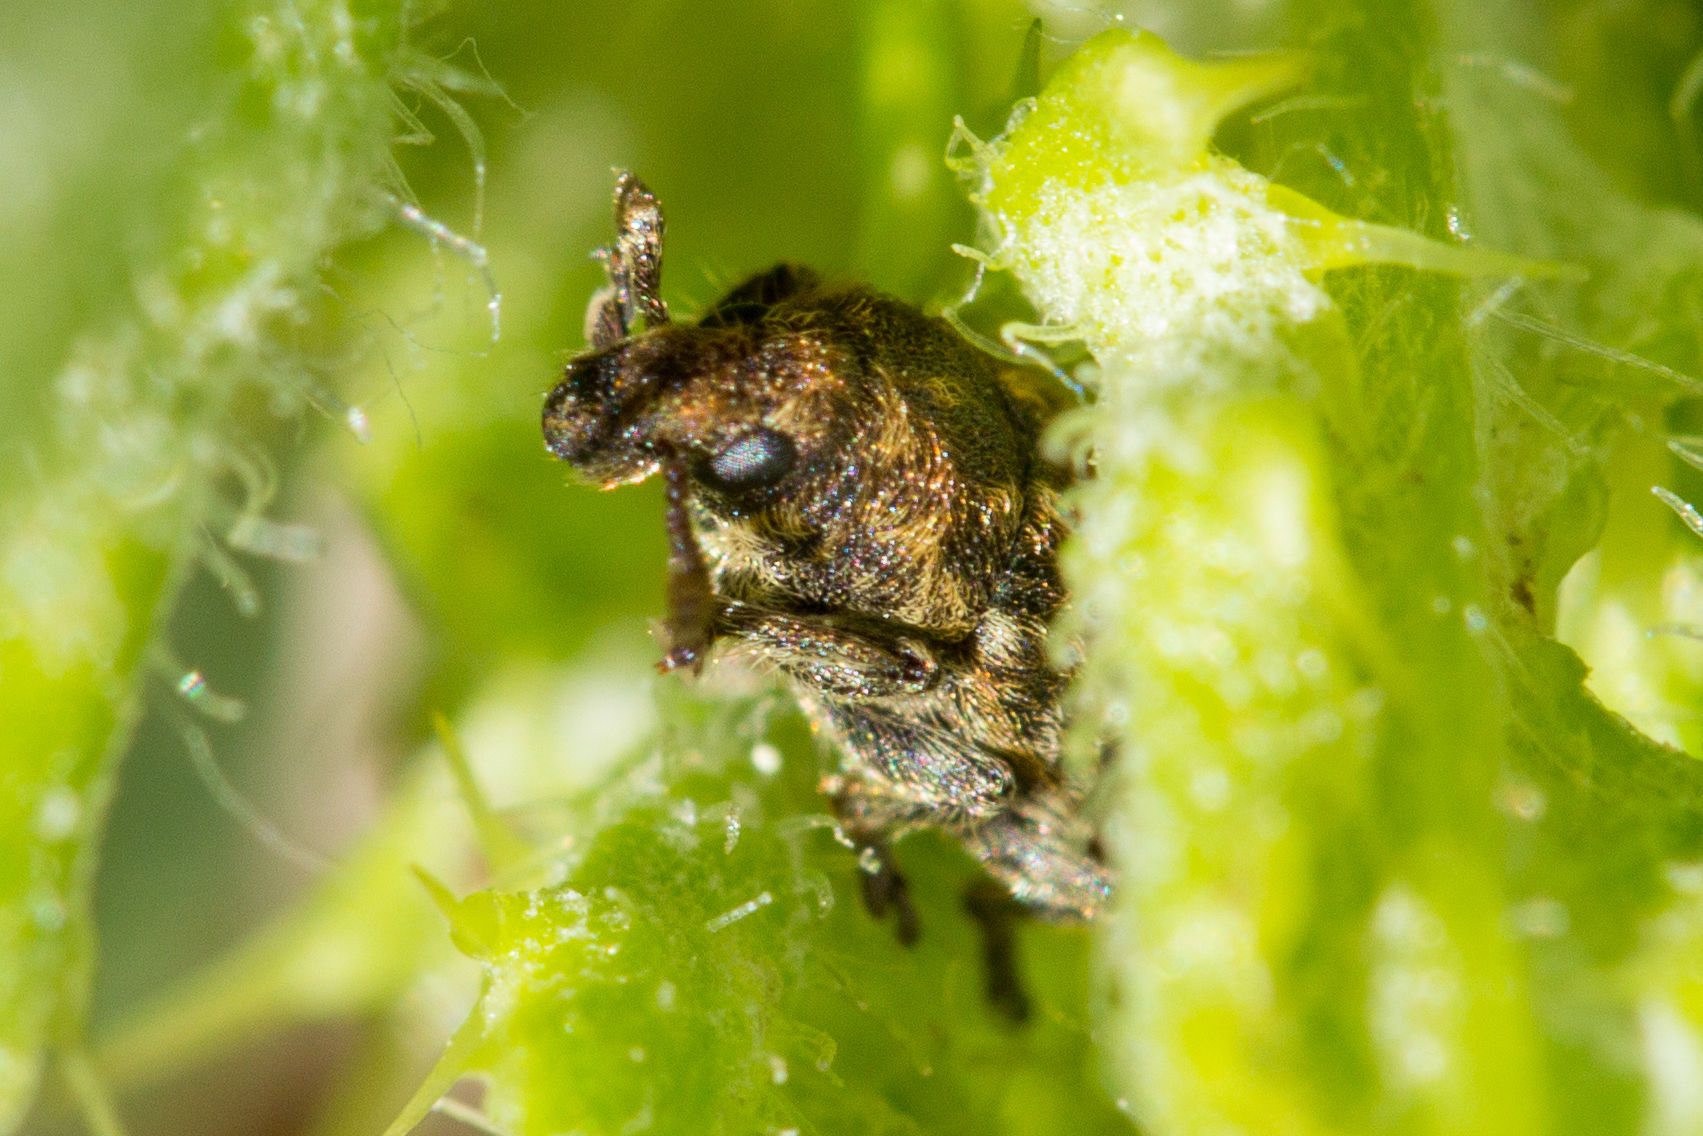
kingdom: Animalia
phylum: Arthropoda
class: Insecta
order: Coleoptera
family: Curculionidae
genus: Rhinocyllus
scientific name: Rhinocyllus conicus
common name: Weevil
